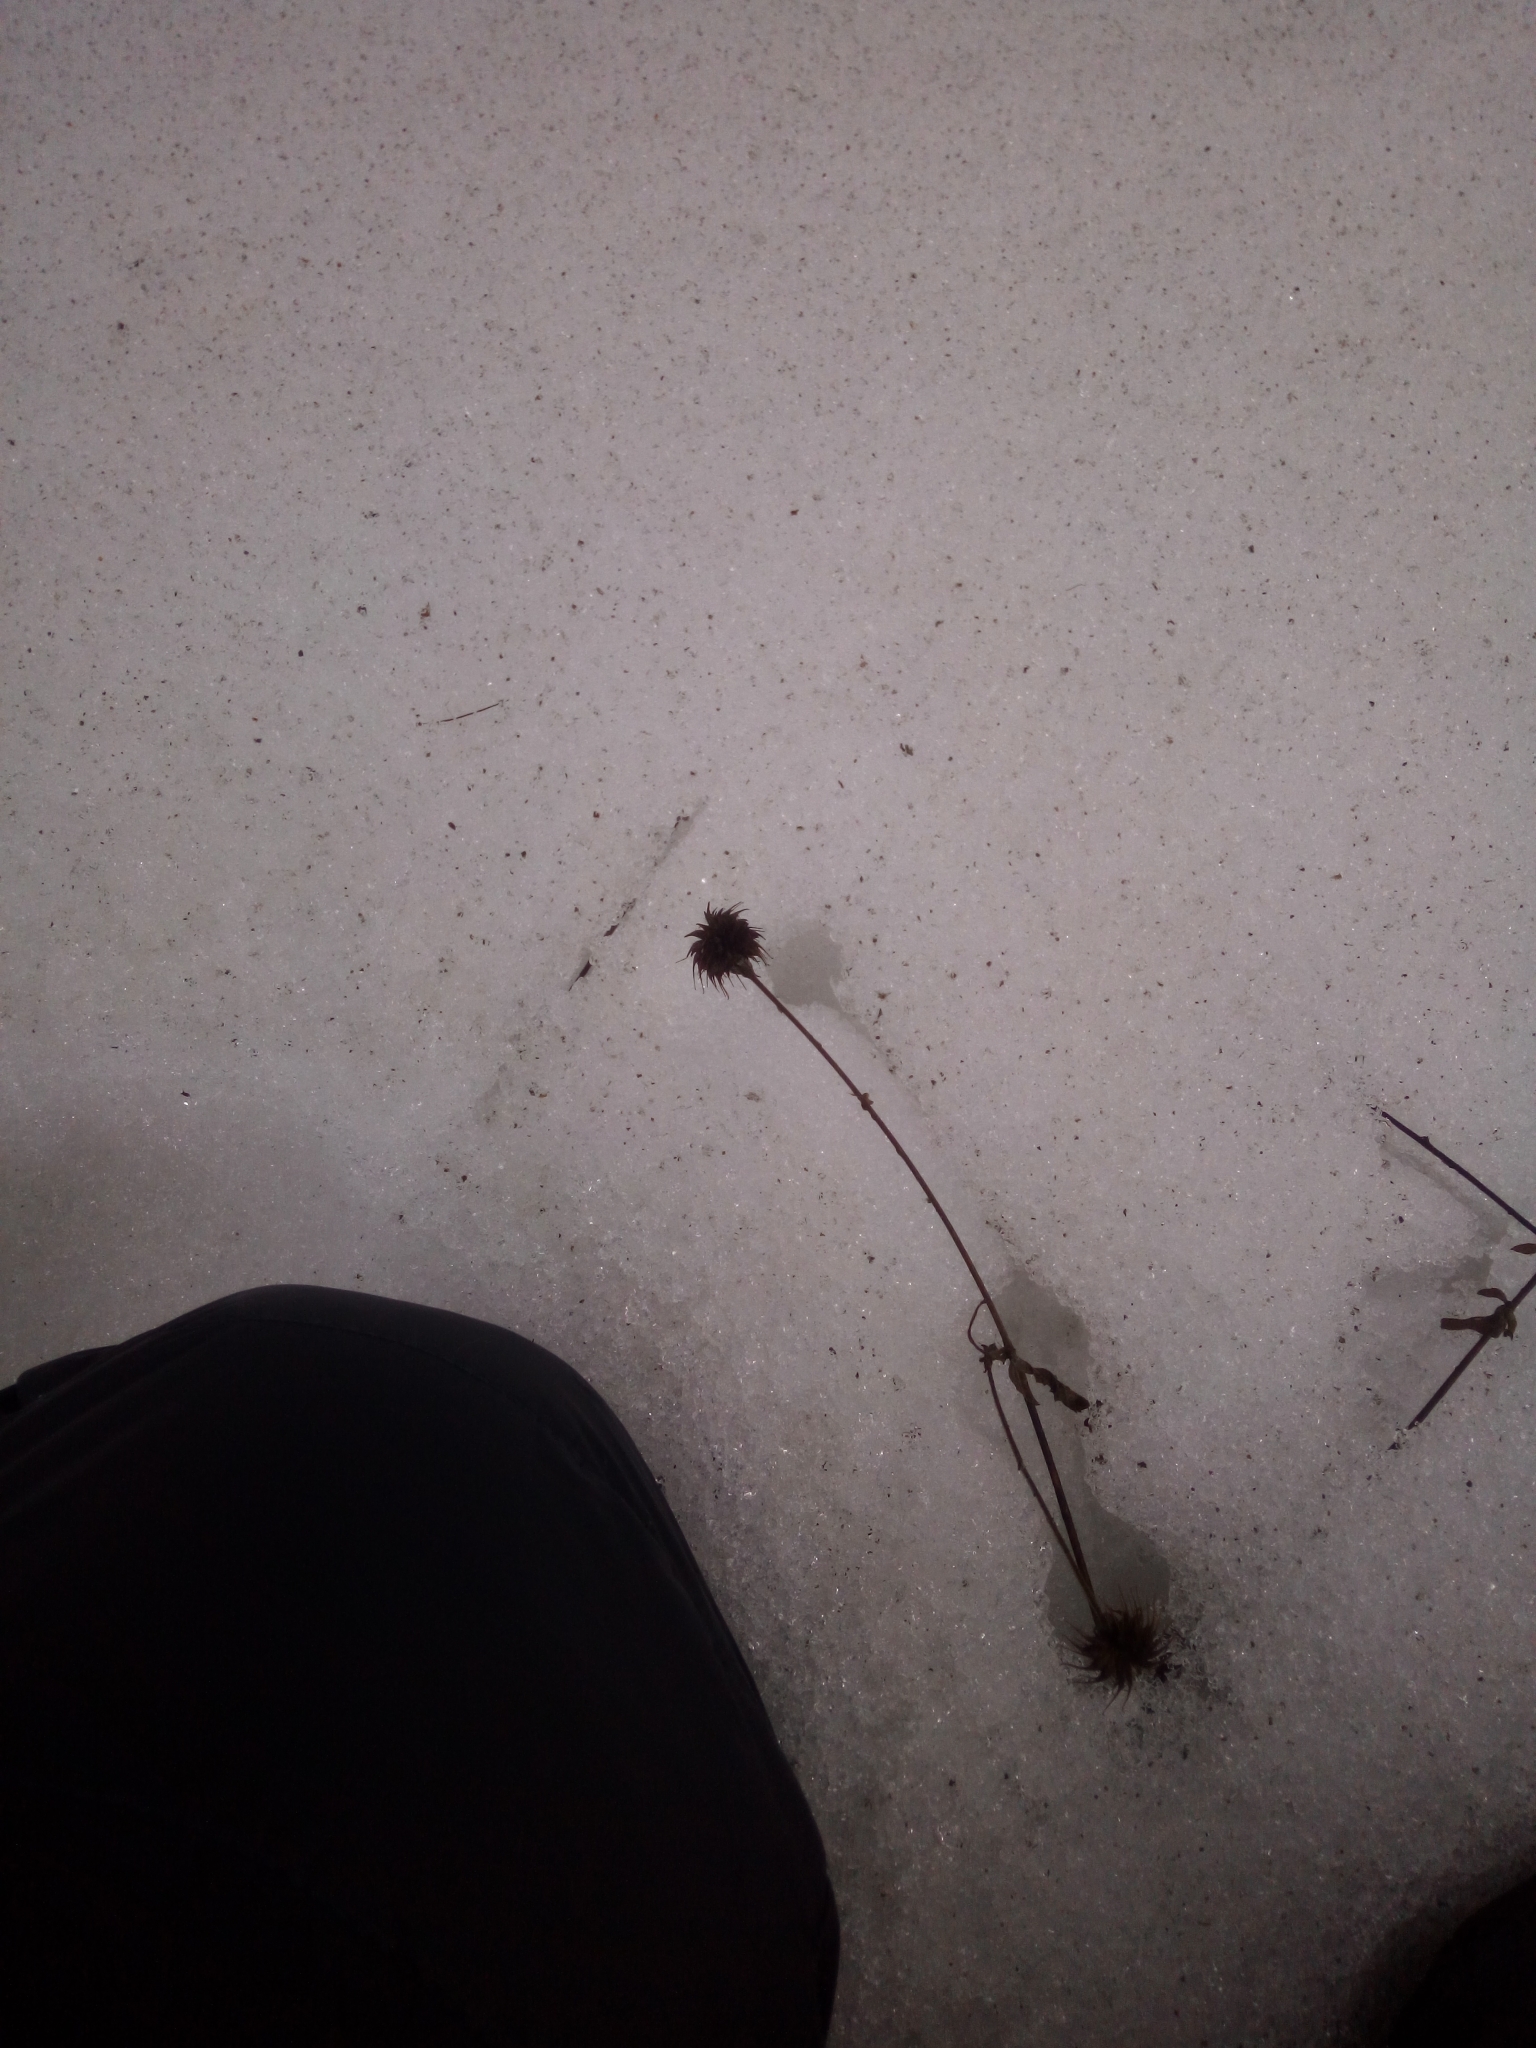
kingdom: Plantae
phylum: Tracheophyta
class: Magnoliopsida
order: Rosales
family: Rosaceae
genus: Geum
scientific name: Geum urbanum
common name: Wood avens
